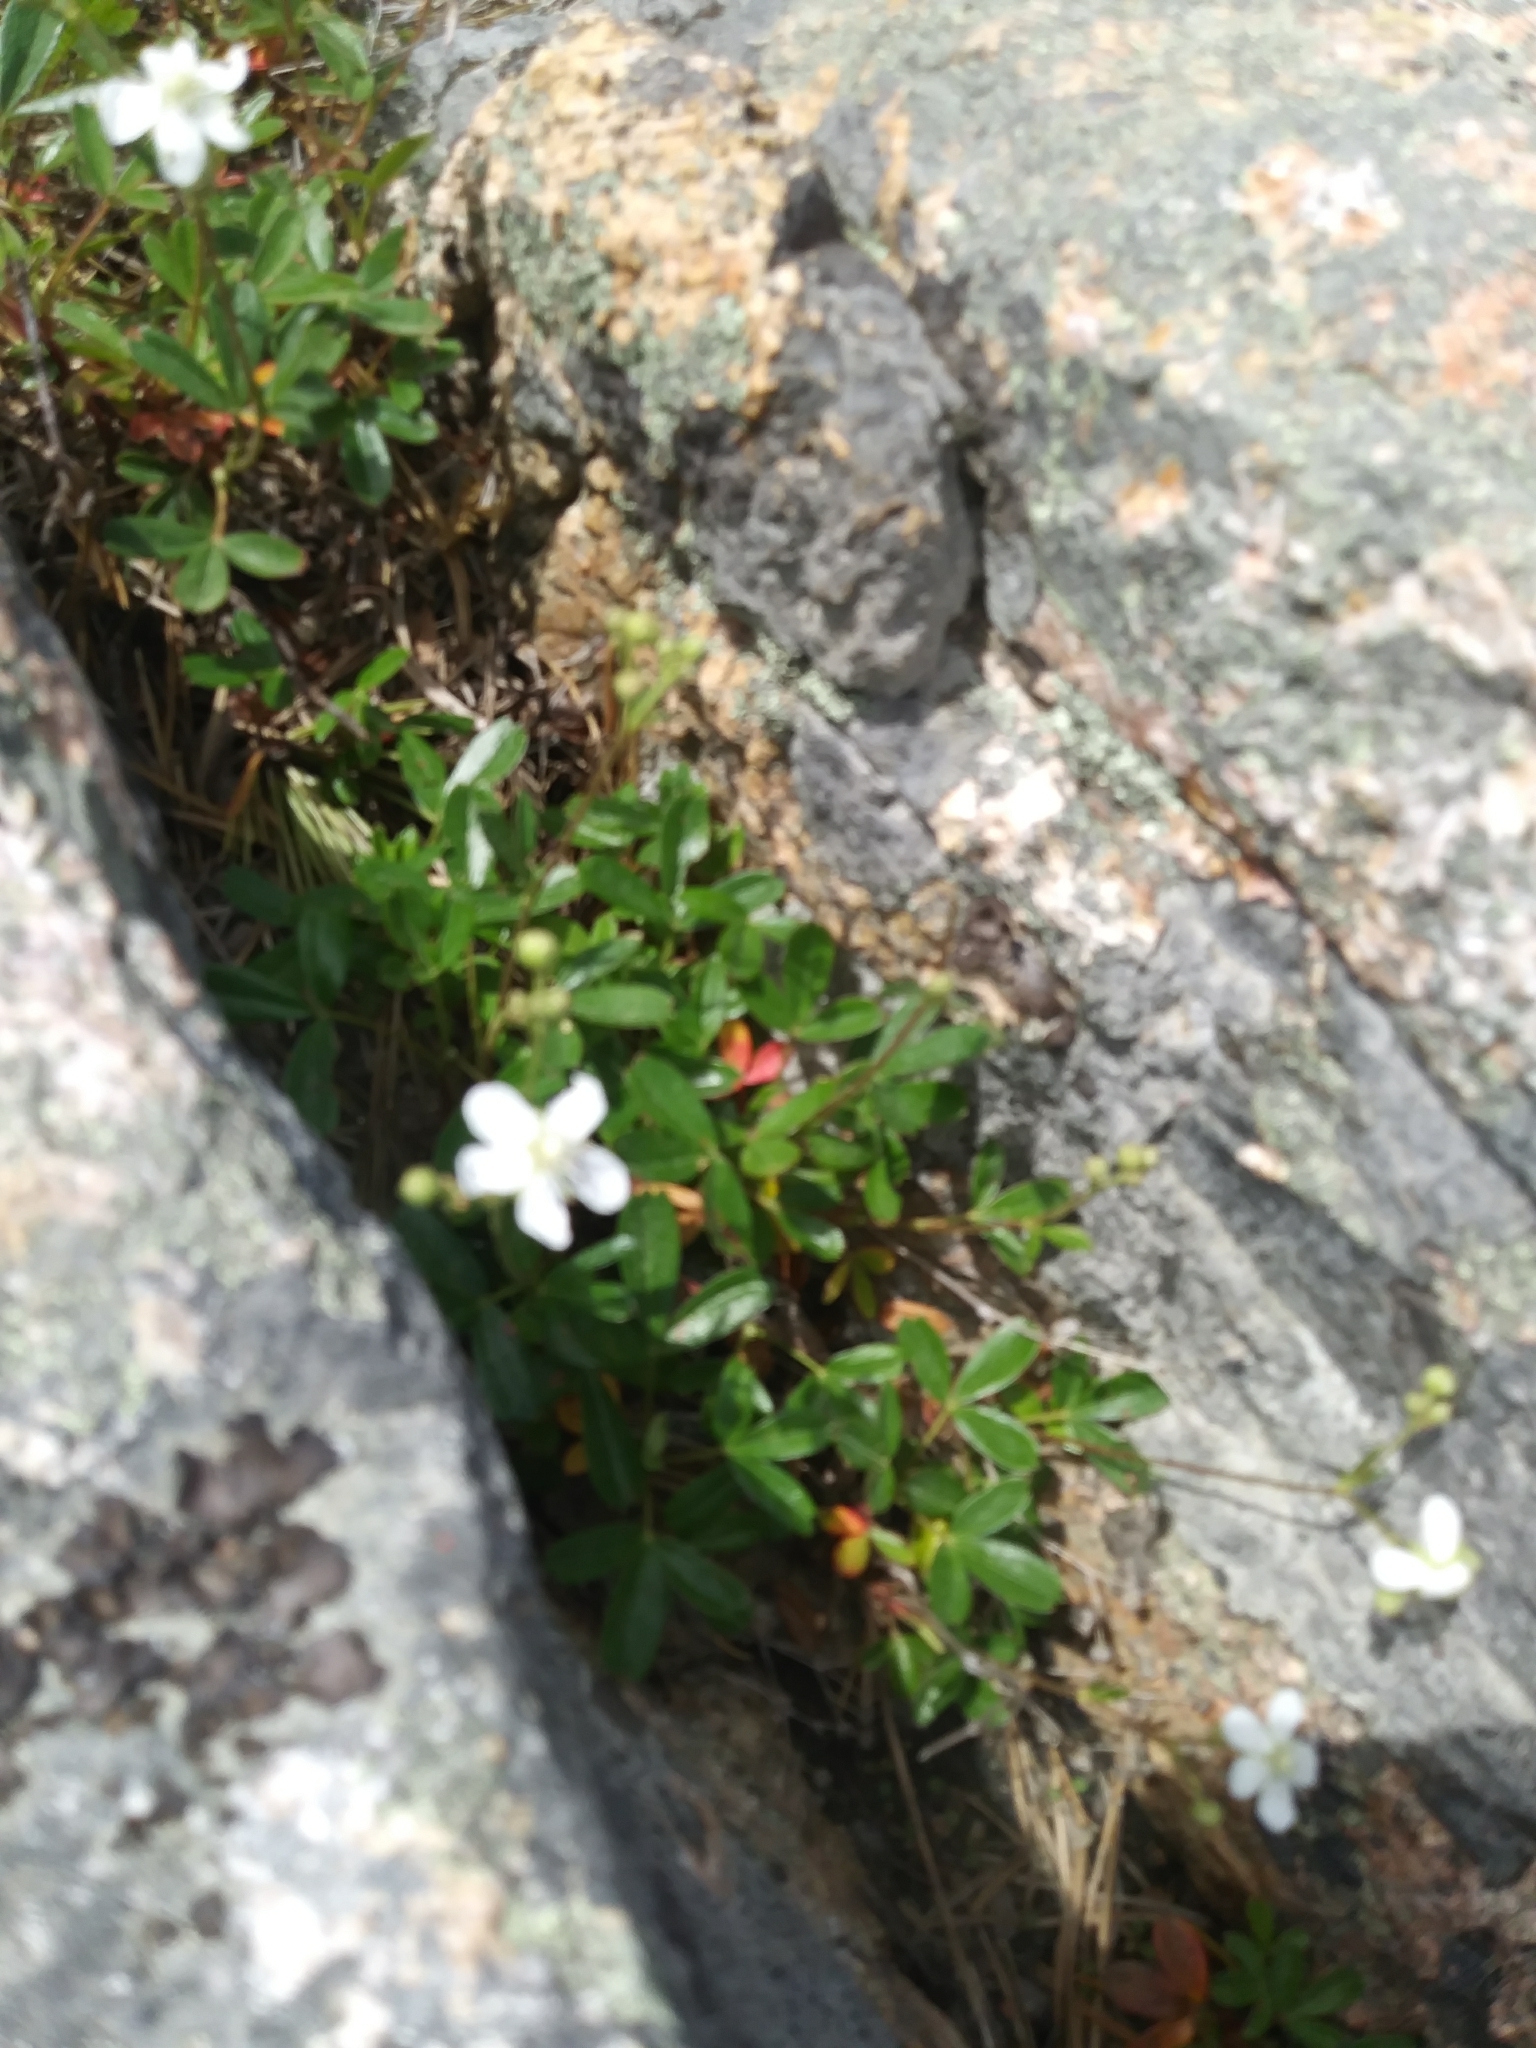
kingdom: Plantae
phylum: Tracheophyta
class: Magnoliopsida
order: Rosales
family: Rosaceae
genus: Sibbaldia
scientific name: Sibbaldia tridentata
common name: Three-toothed cinquefoil
